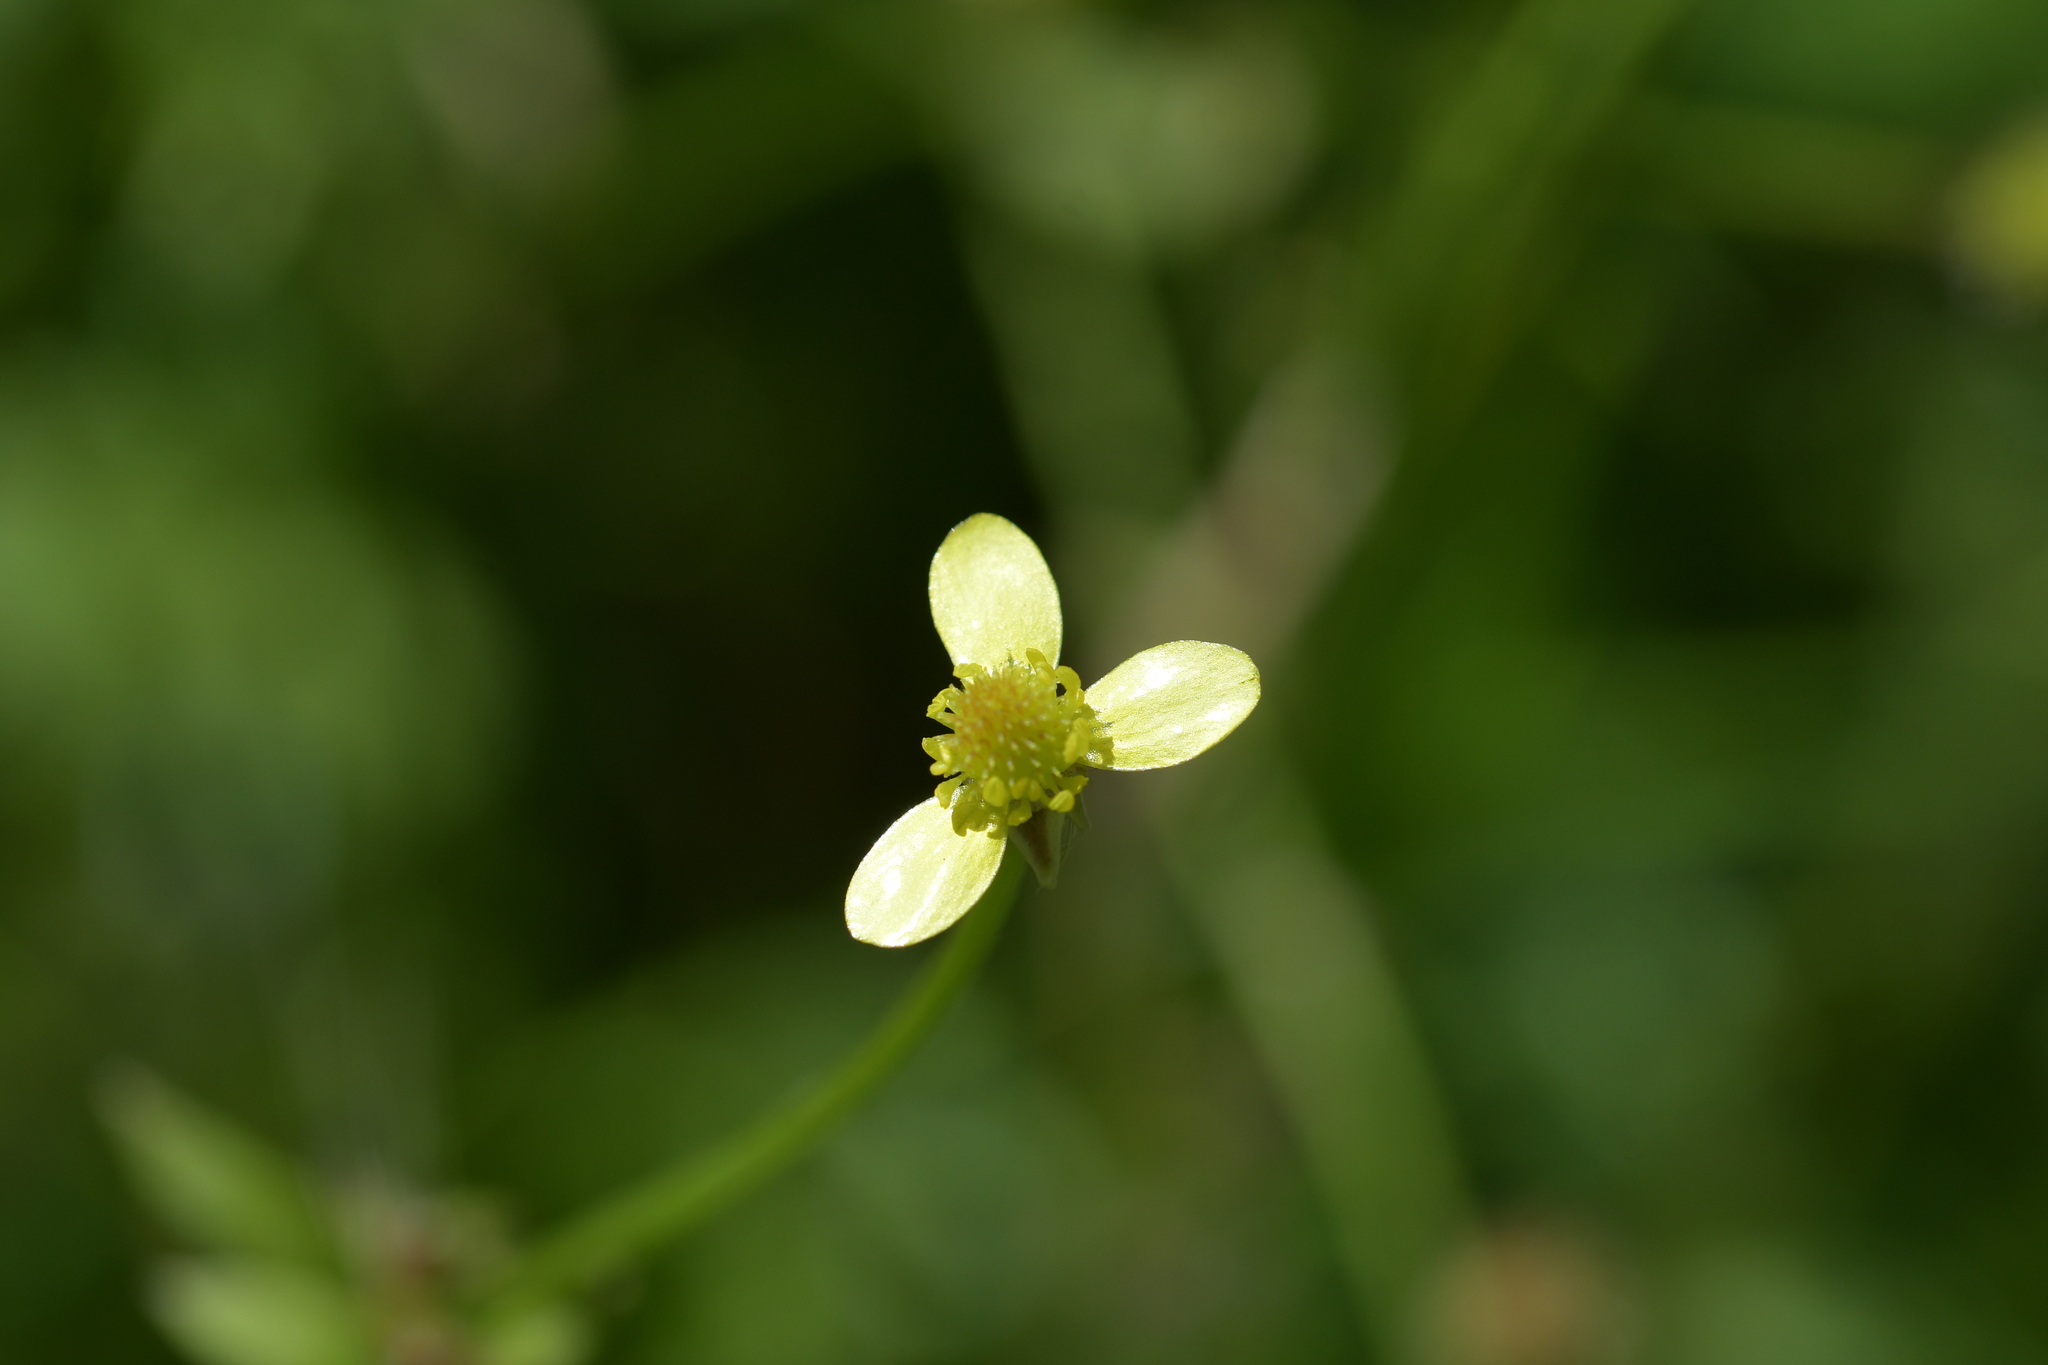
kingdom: Plantae
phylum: Tracheophyta
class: Magnoliopsida
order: Ranunculales
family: Ranunculaceae
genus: Ranunculus
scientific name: Ranunculus reflexus
